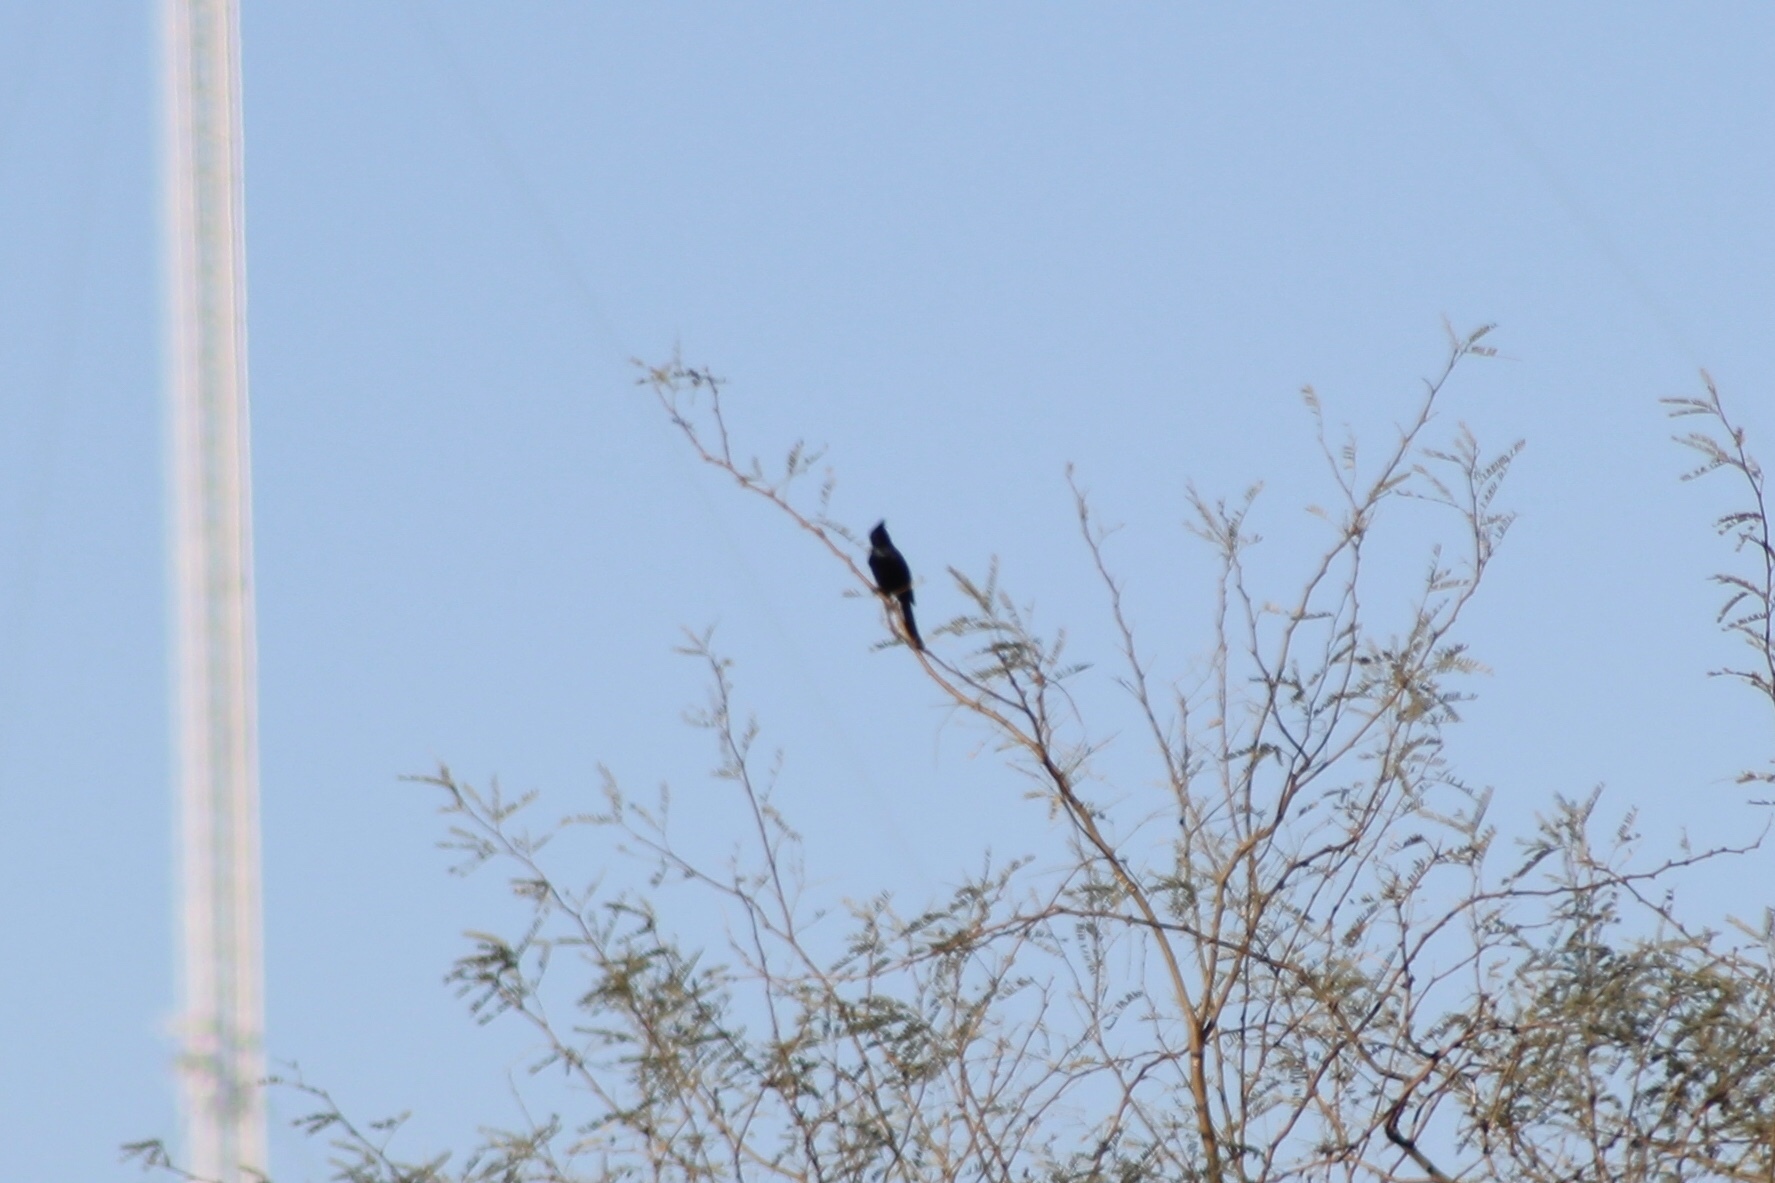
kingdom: Animalia
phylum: Chordata
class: Aves
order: Passeriformes
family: Ptilogonatidae
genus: Phainopepla
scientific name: Phainopepla nitens
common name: Phainopepla
